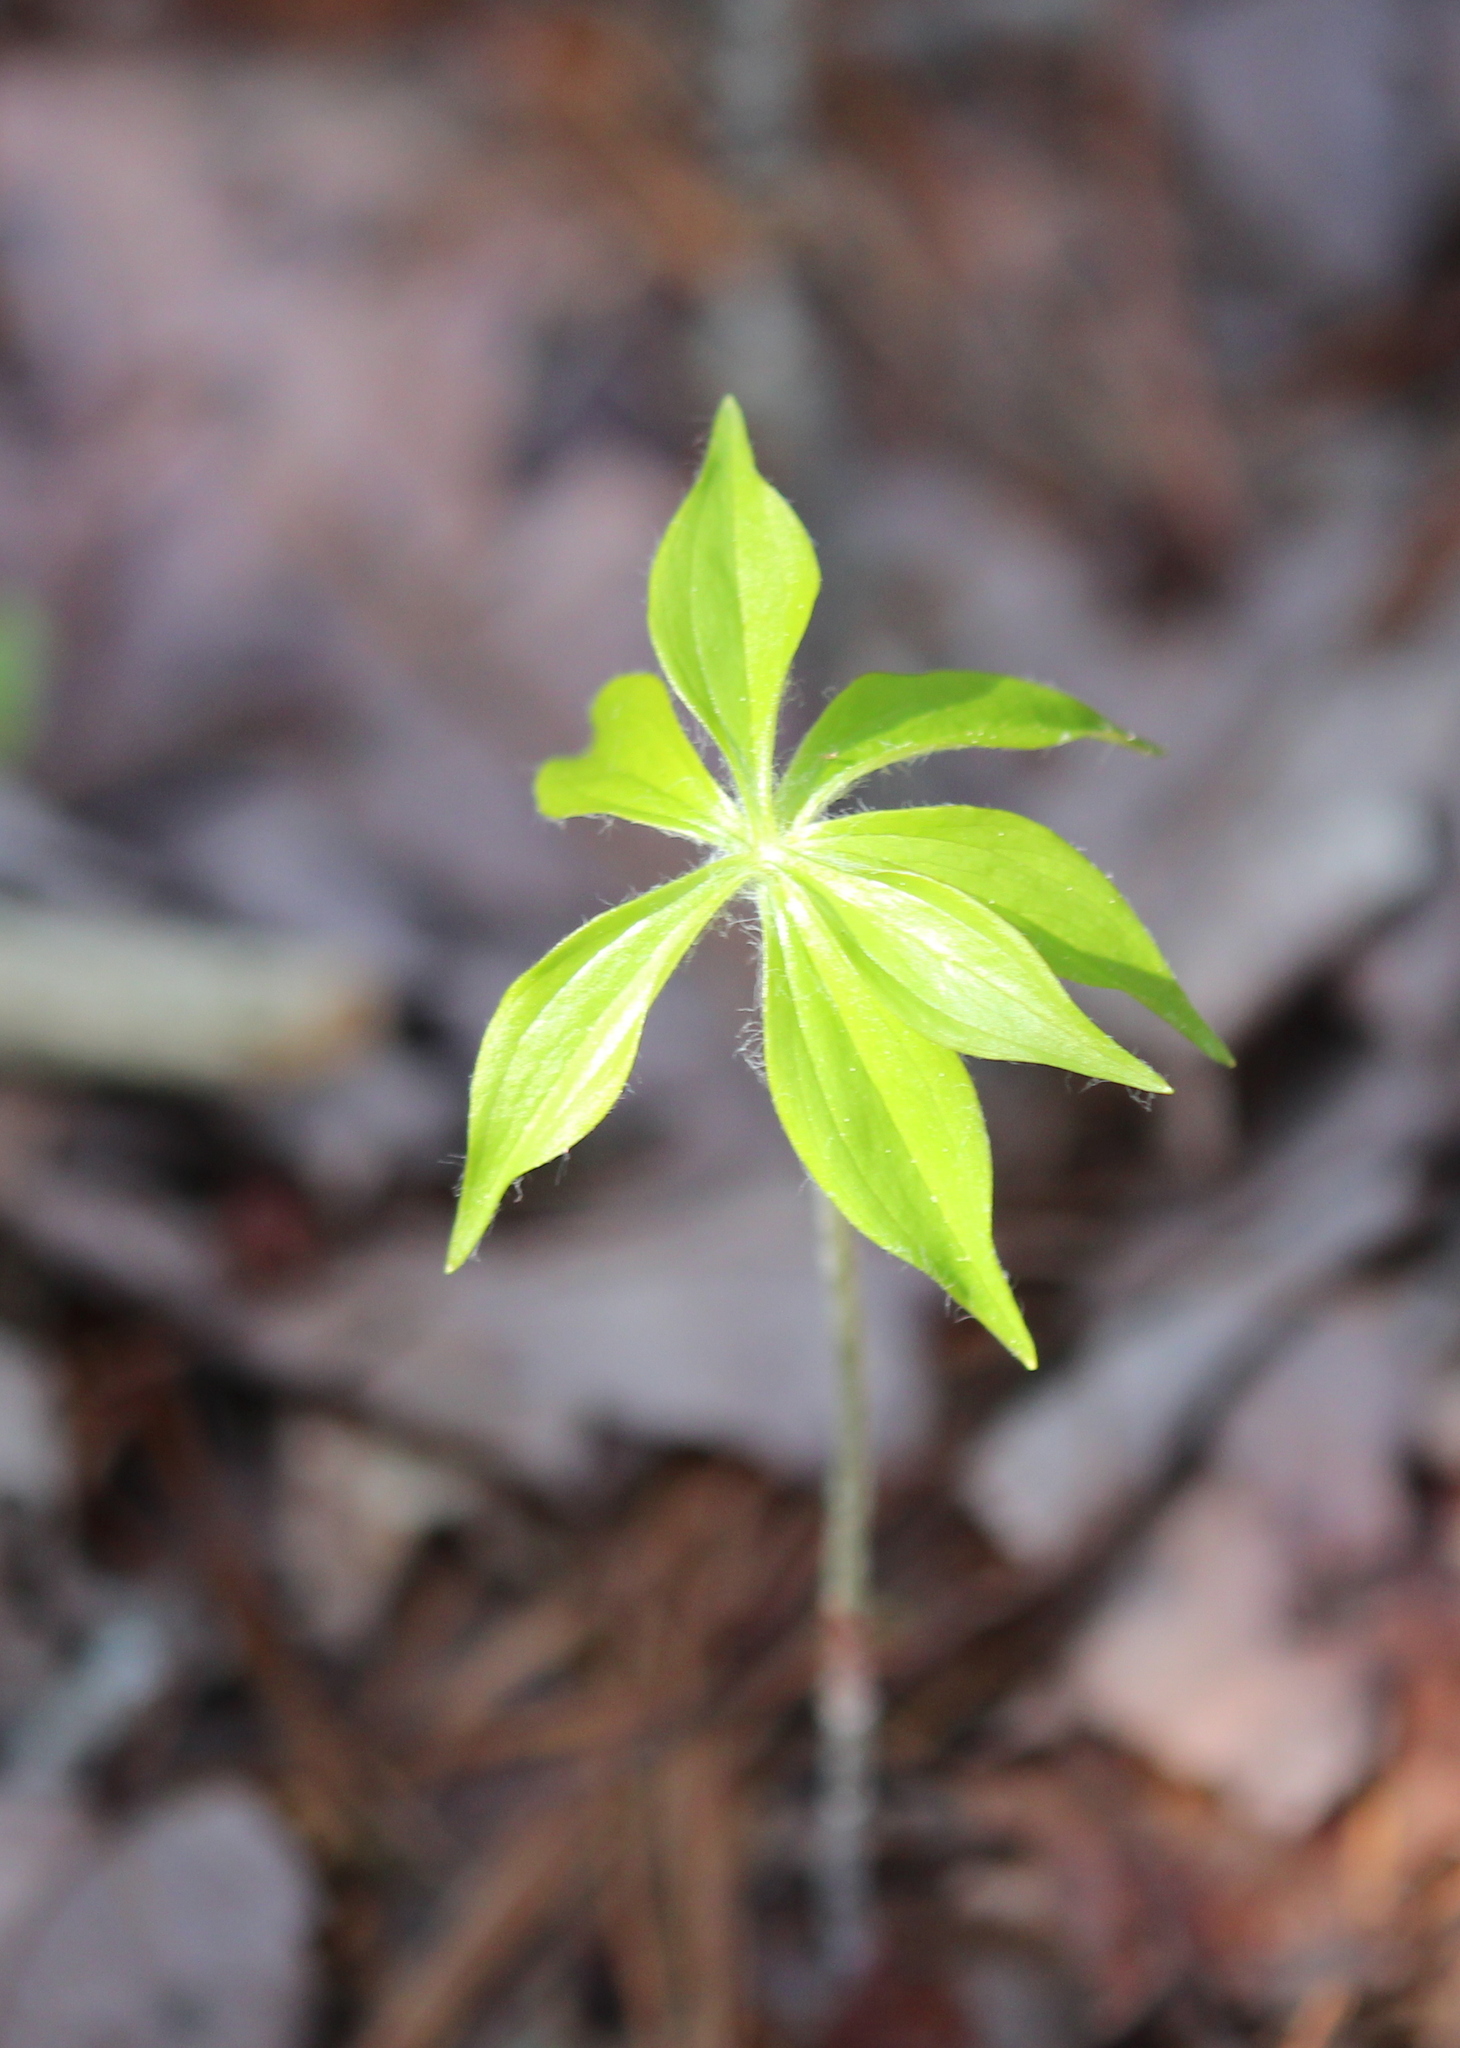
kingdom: Plantae
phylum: Tracheophyta
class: Liliopsida
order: Liliales
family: Liliaceae
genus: Medeola
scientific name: Medeola virginiana
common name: Indian cucumber-root
